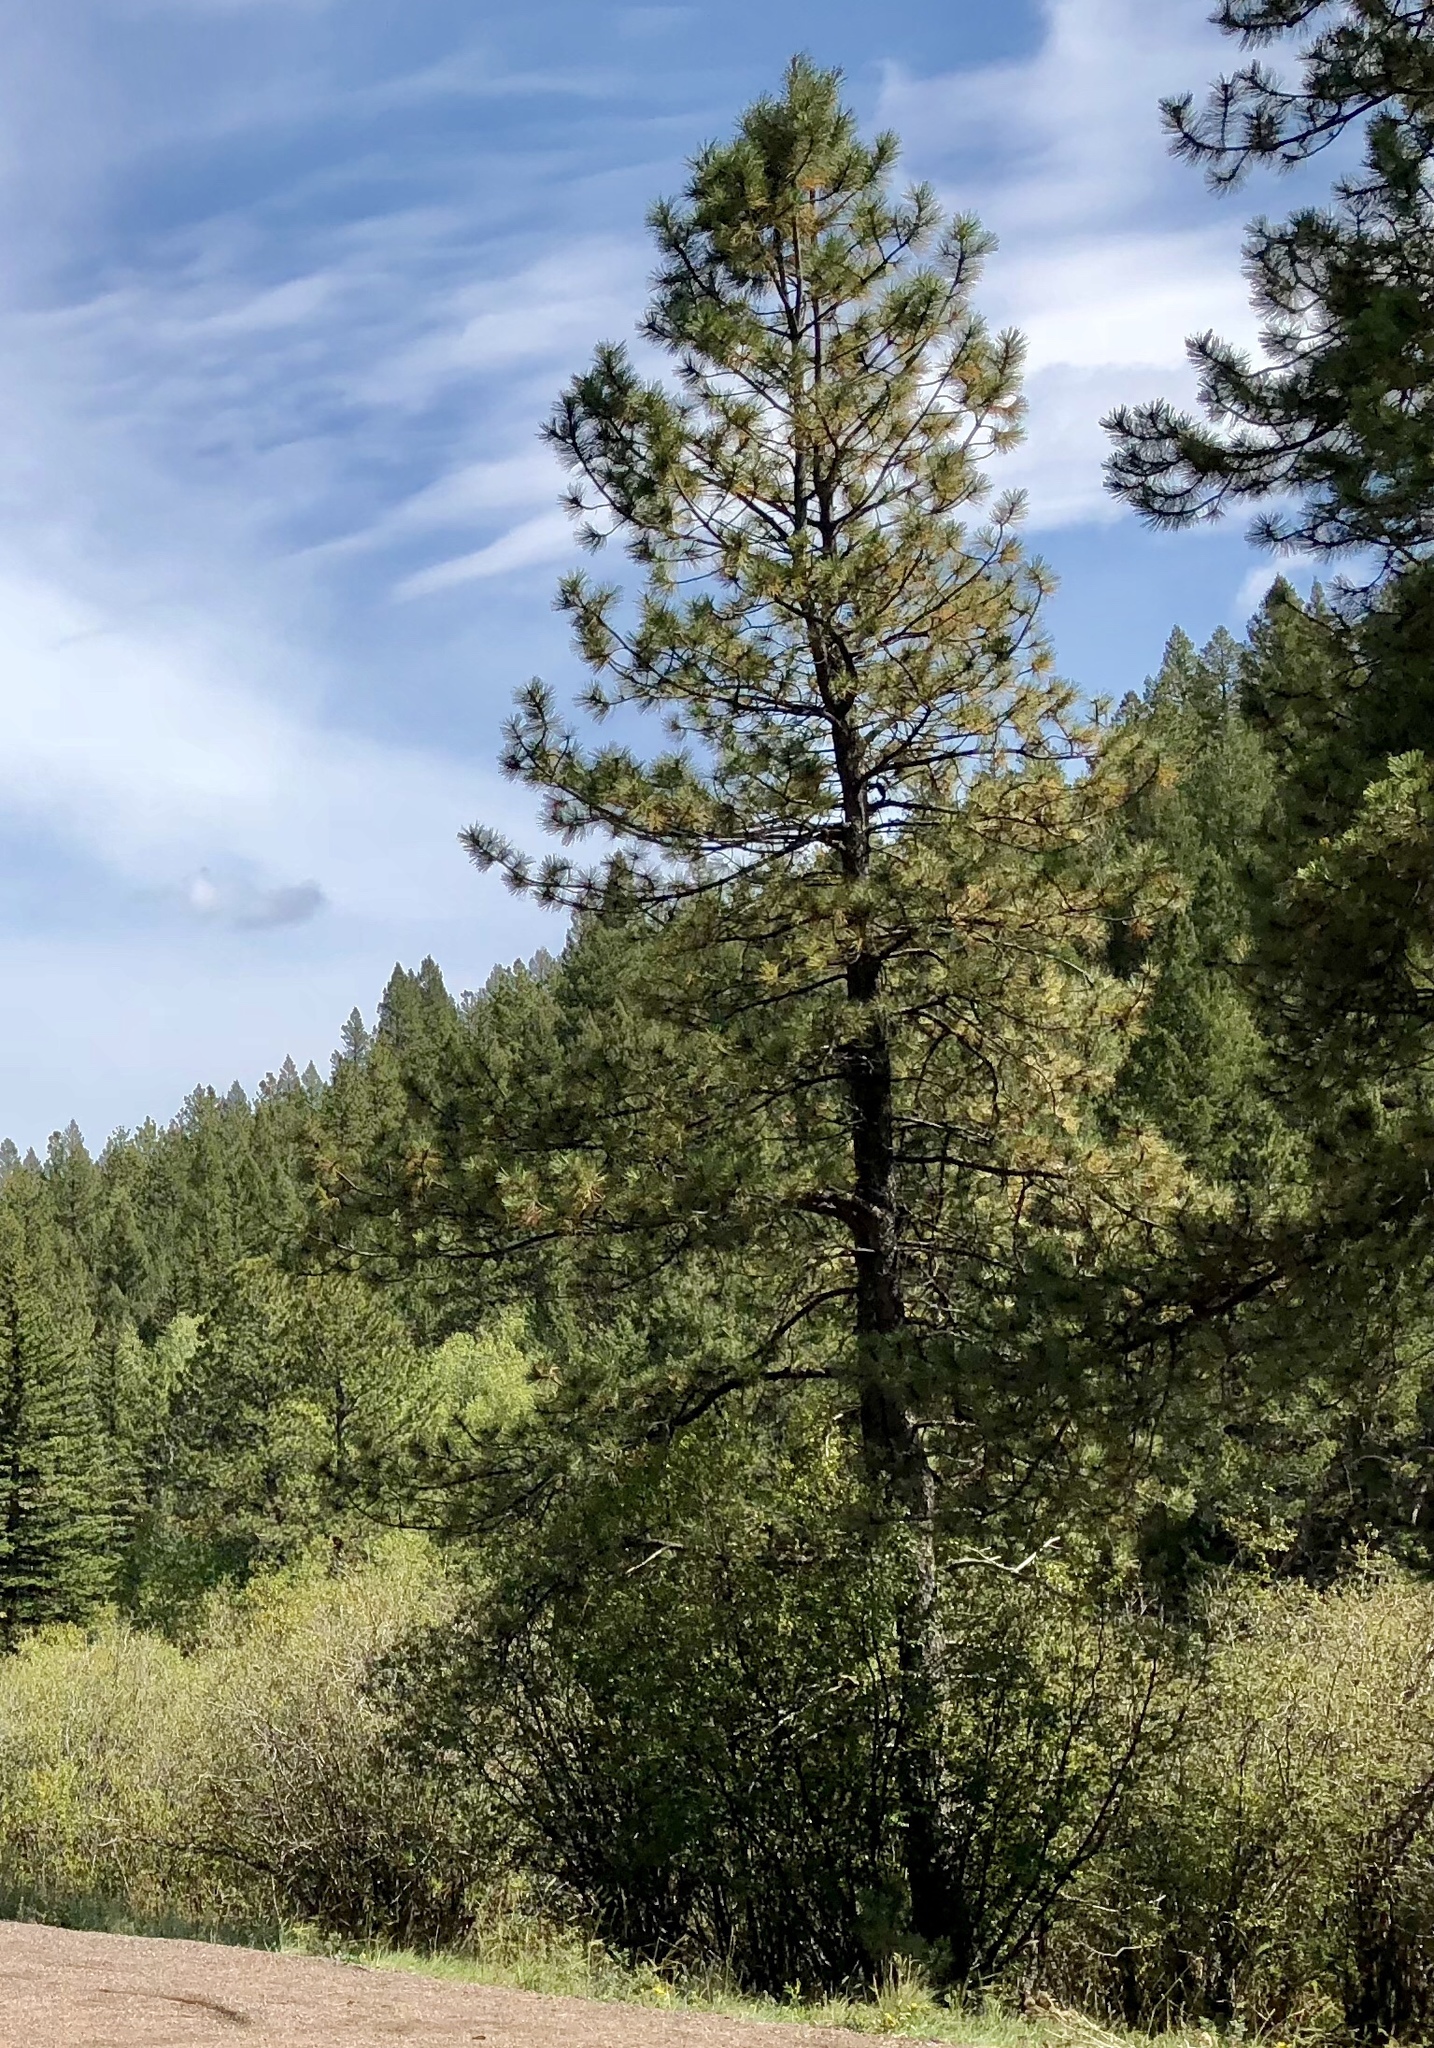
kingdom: Plantae
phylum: Tracheophyta
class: Pinopsida
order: Pinales
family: Pinaceae
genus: Pinus
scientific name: Pinus ponderosa
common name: Western yellow-pine
